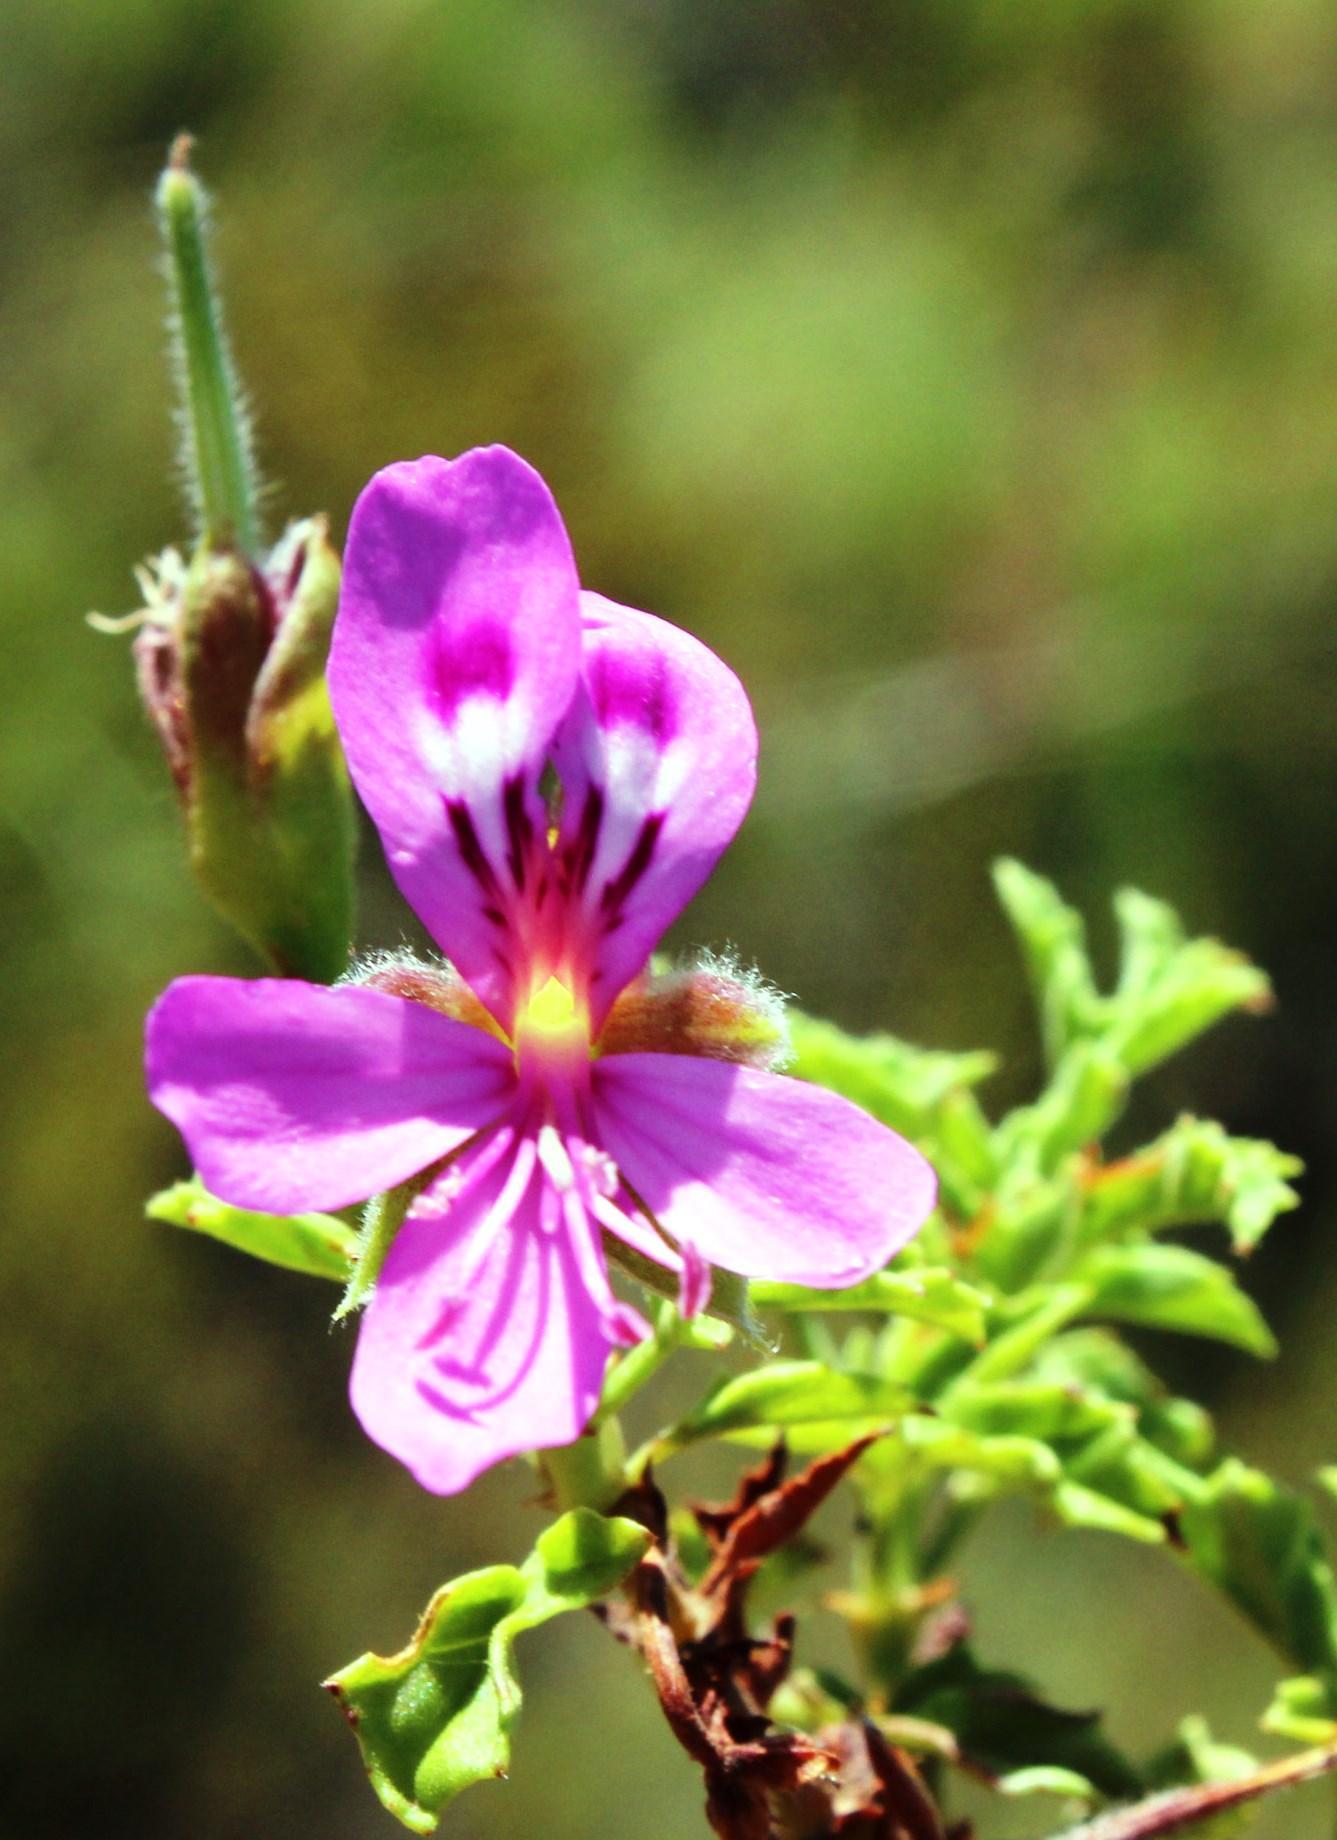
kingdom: Plantae
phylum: Tracheophyta
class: Magnoliopsida
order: Geraniales
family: Geraniaceae
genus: Pelargonium
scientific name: Pelargonium quercifolium
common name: Oakleaf geranium
